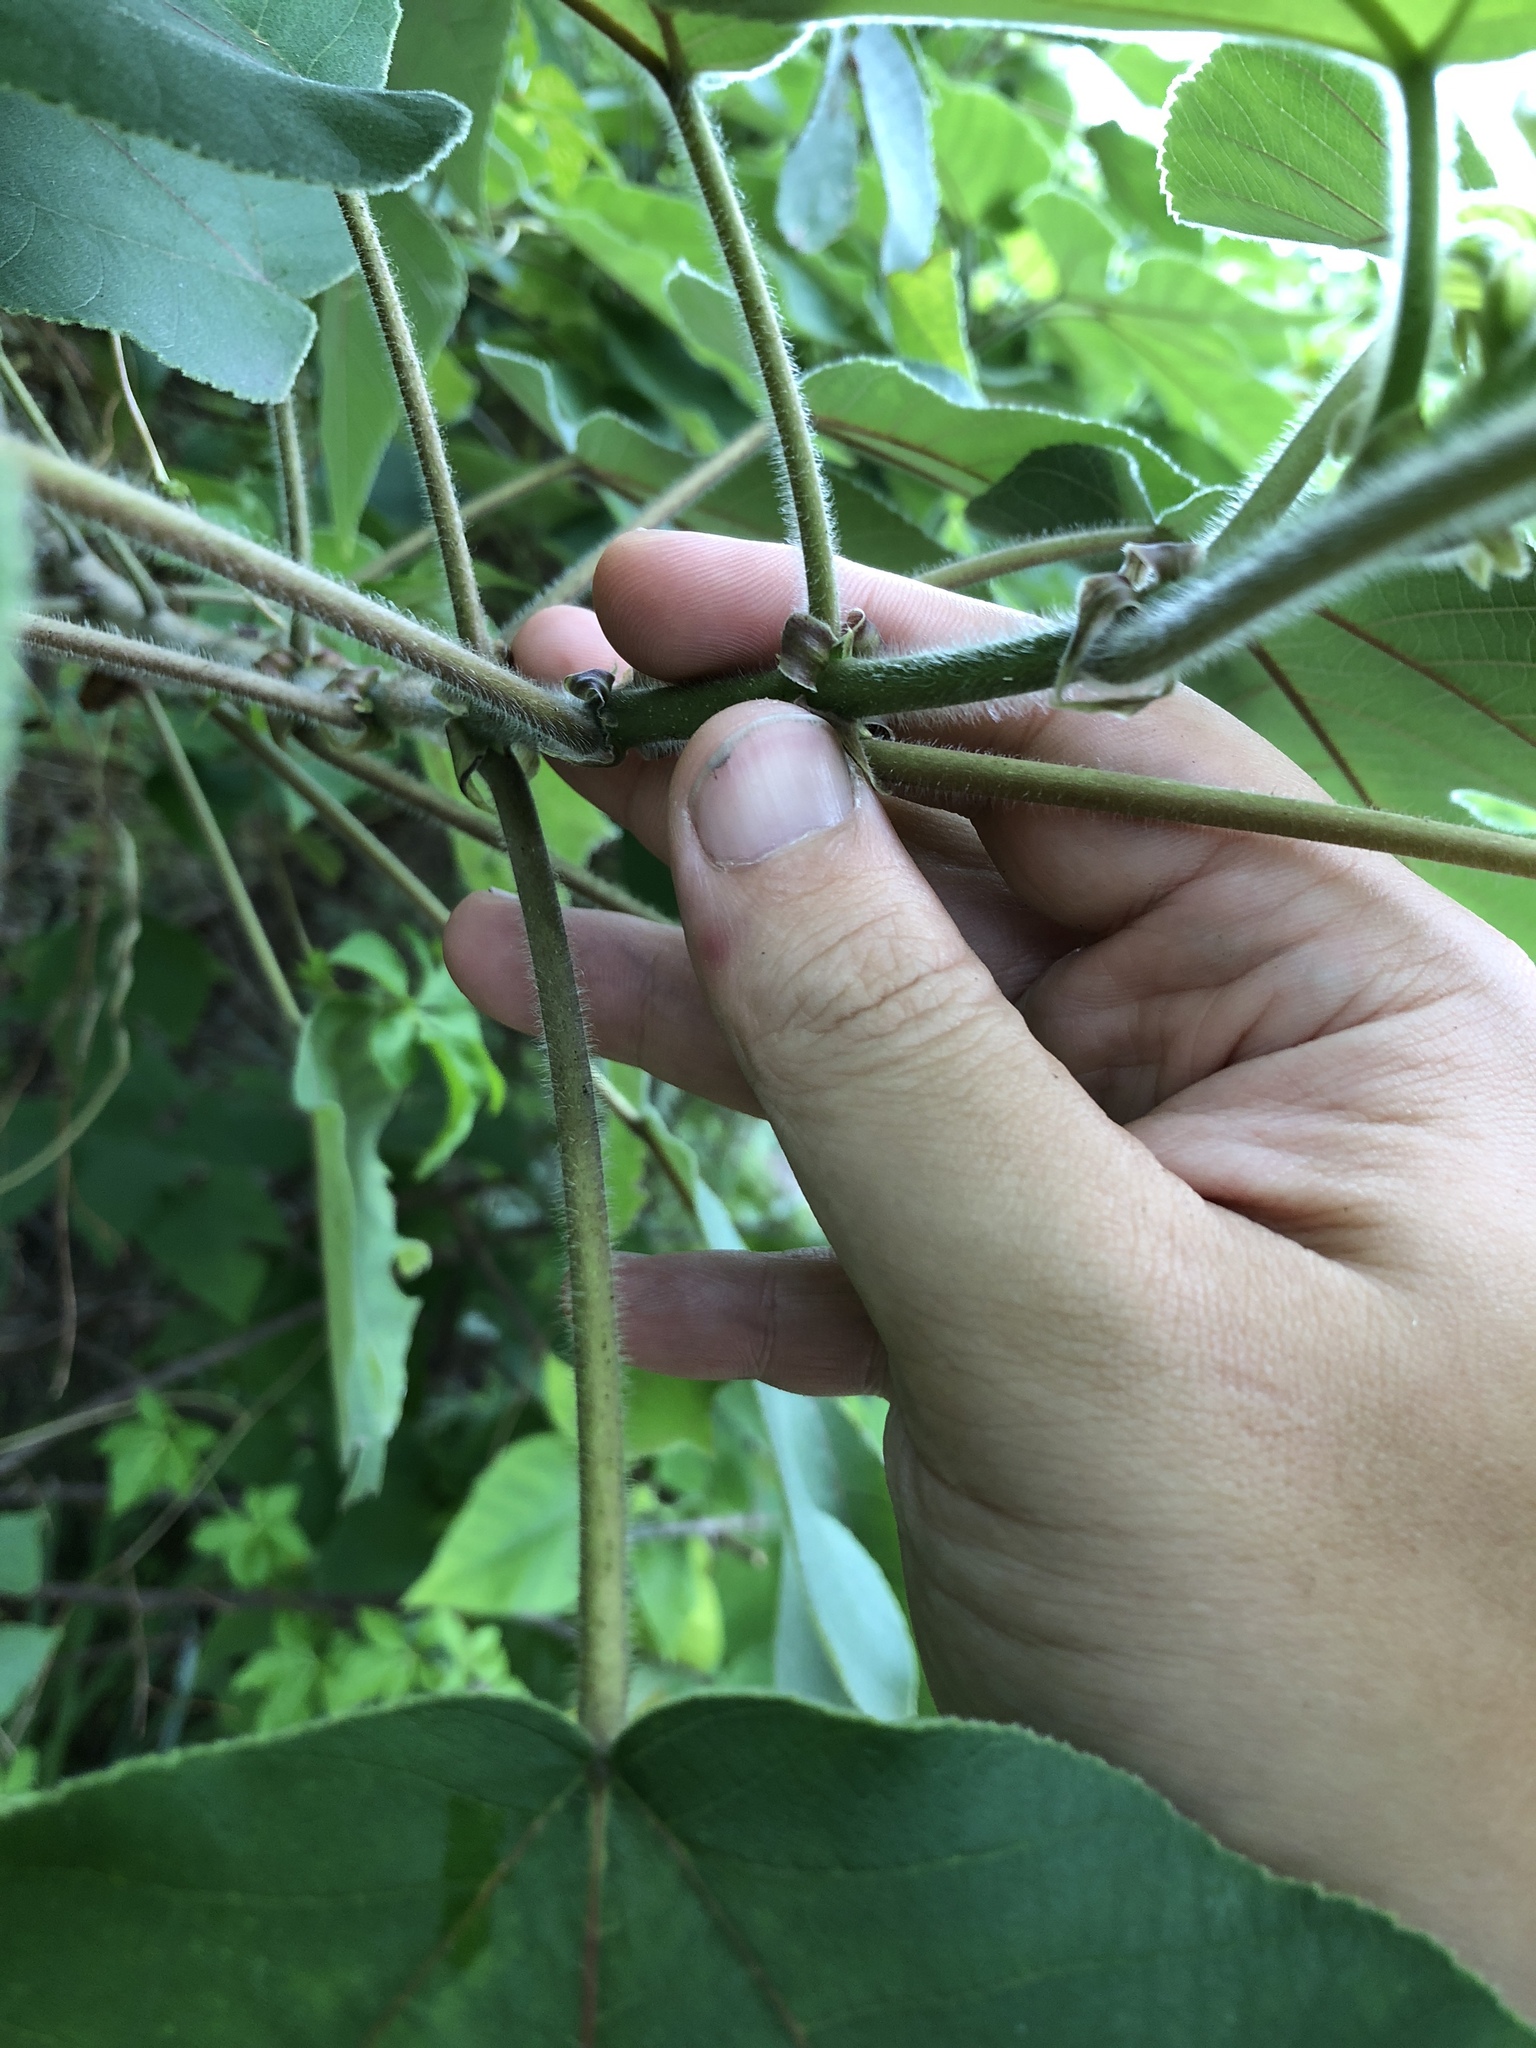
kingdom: Plantae
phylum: Tracheophyta
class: Magnoliopsida
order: Rosales
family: Moraceae
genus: Broussonetia
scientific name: Broussonetia papyrifera
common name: Paper mulberry
